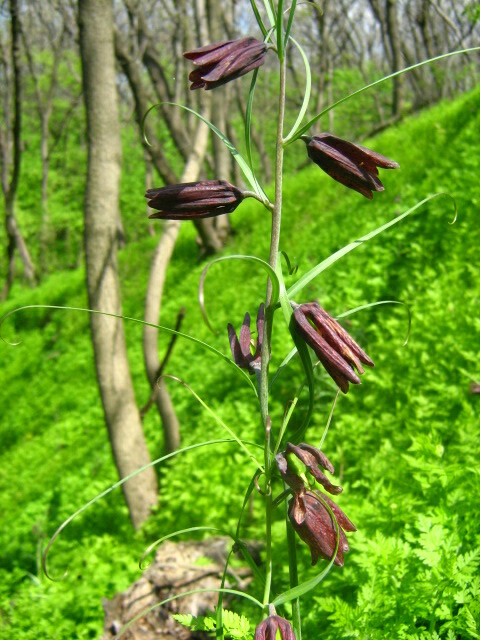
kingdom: Plantae
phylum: Tracheophyta
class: Liliopsida
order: Liliales
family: Liliaceae
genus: Fritillaria
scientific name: Fritillaria ruthenica
